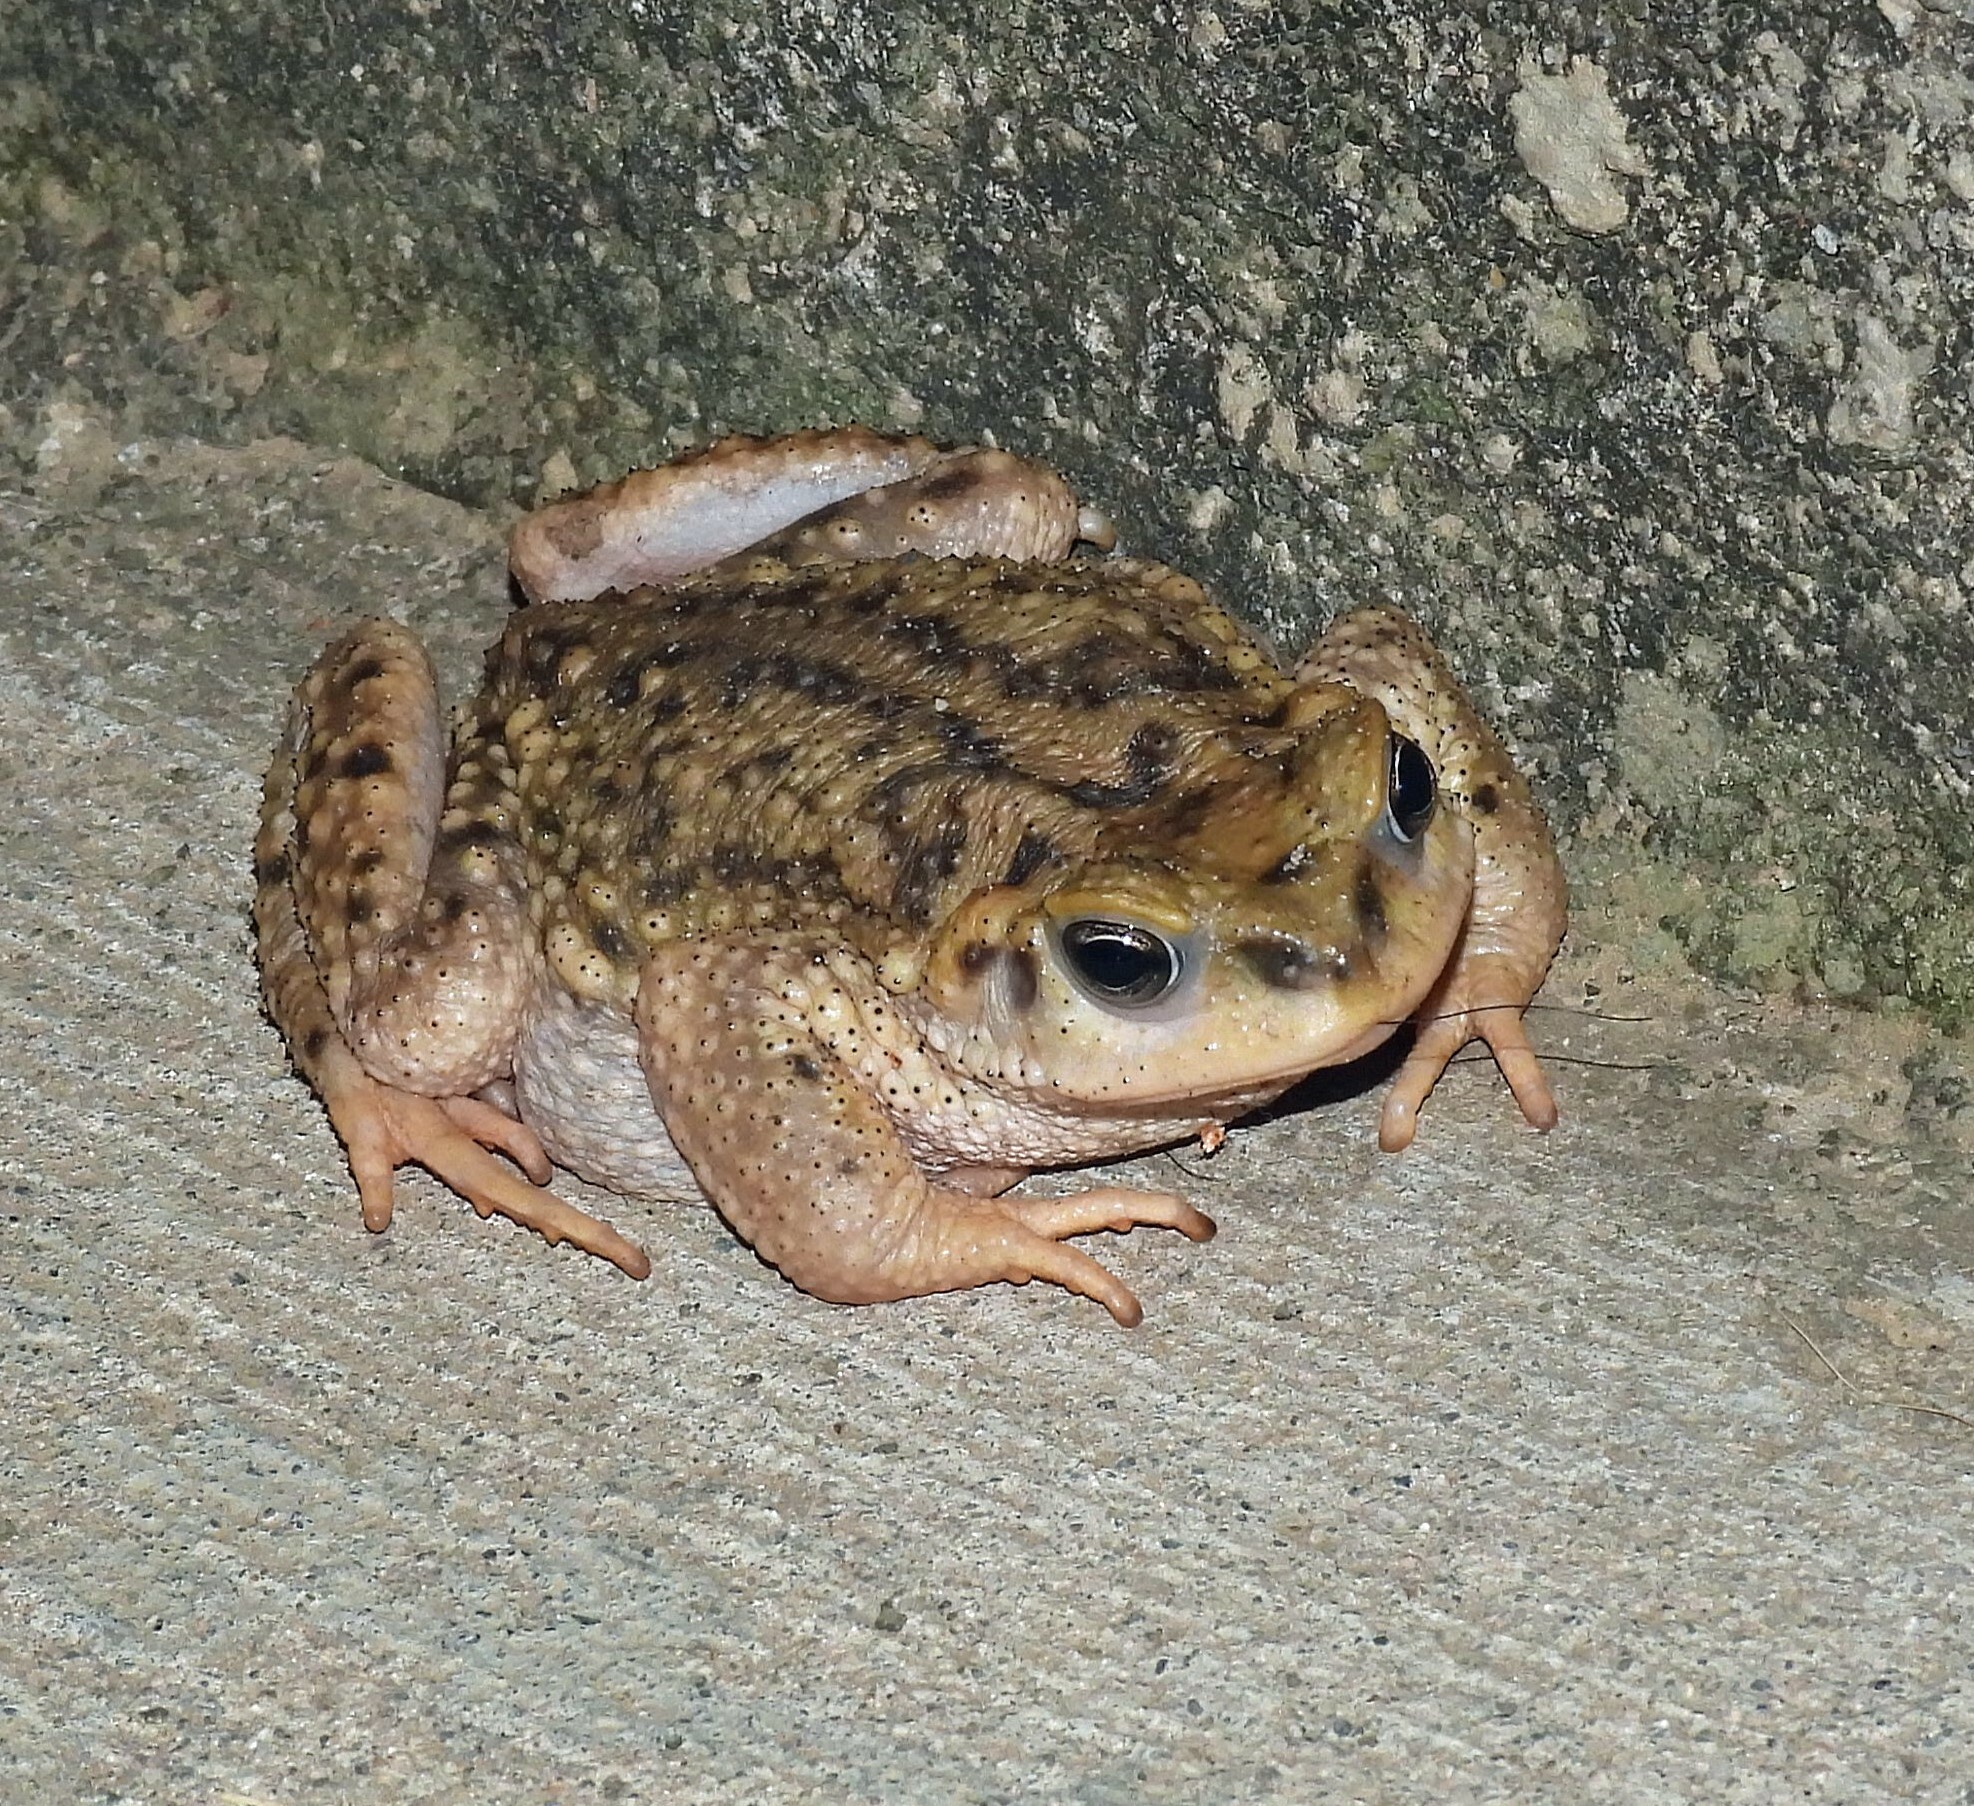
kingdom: Animalia
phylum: Chordata
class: Amphibia
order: Anura
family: Bufonidae
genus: Rhinella
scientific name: Rhinella spinulosa
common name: Warty toad
